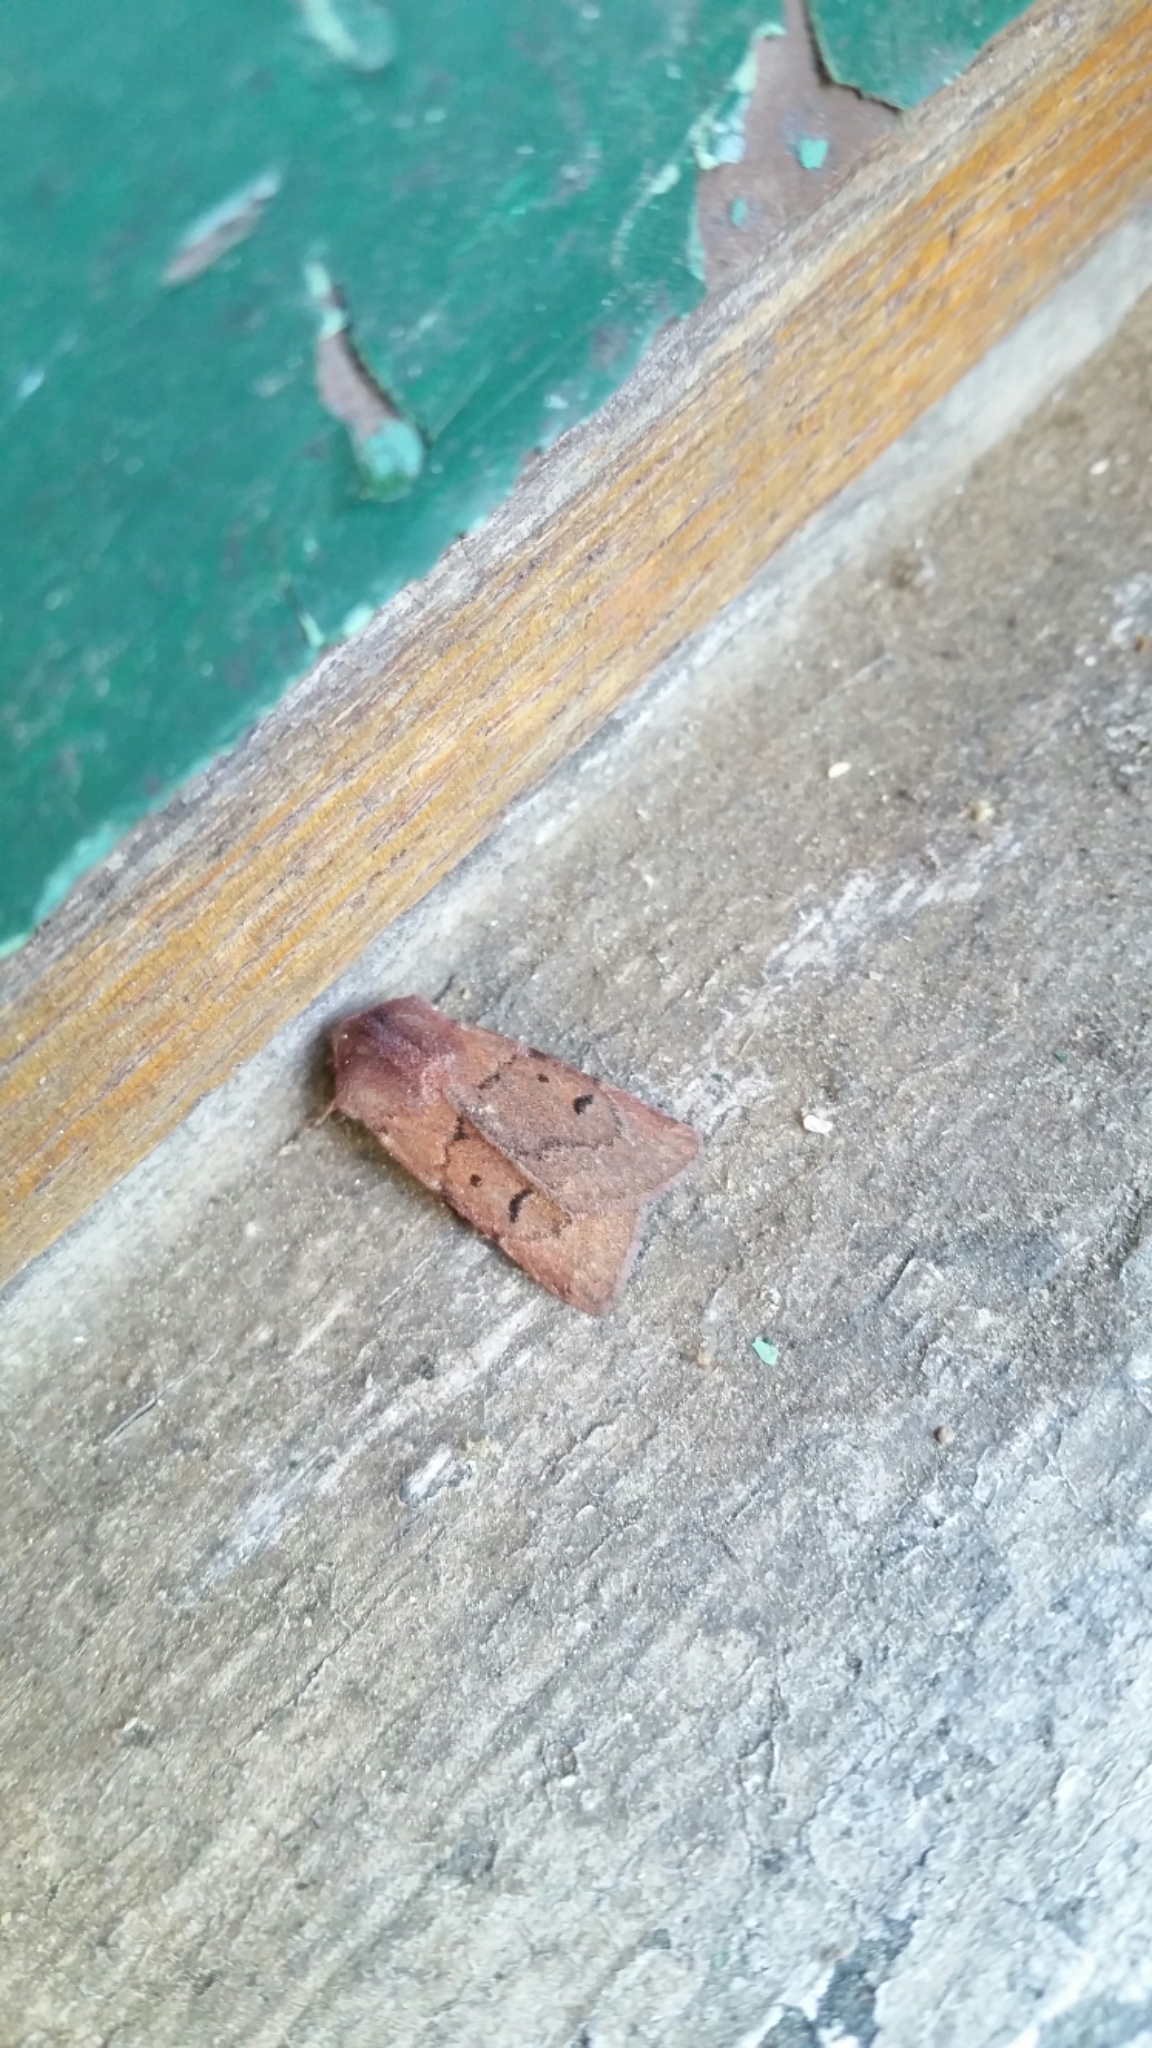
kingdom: Animalia
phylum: Arthropoda
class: Insecta
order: Lepidoptera
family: Noctuidae
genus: Feltia
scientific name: Feltia manifesta
